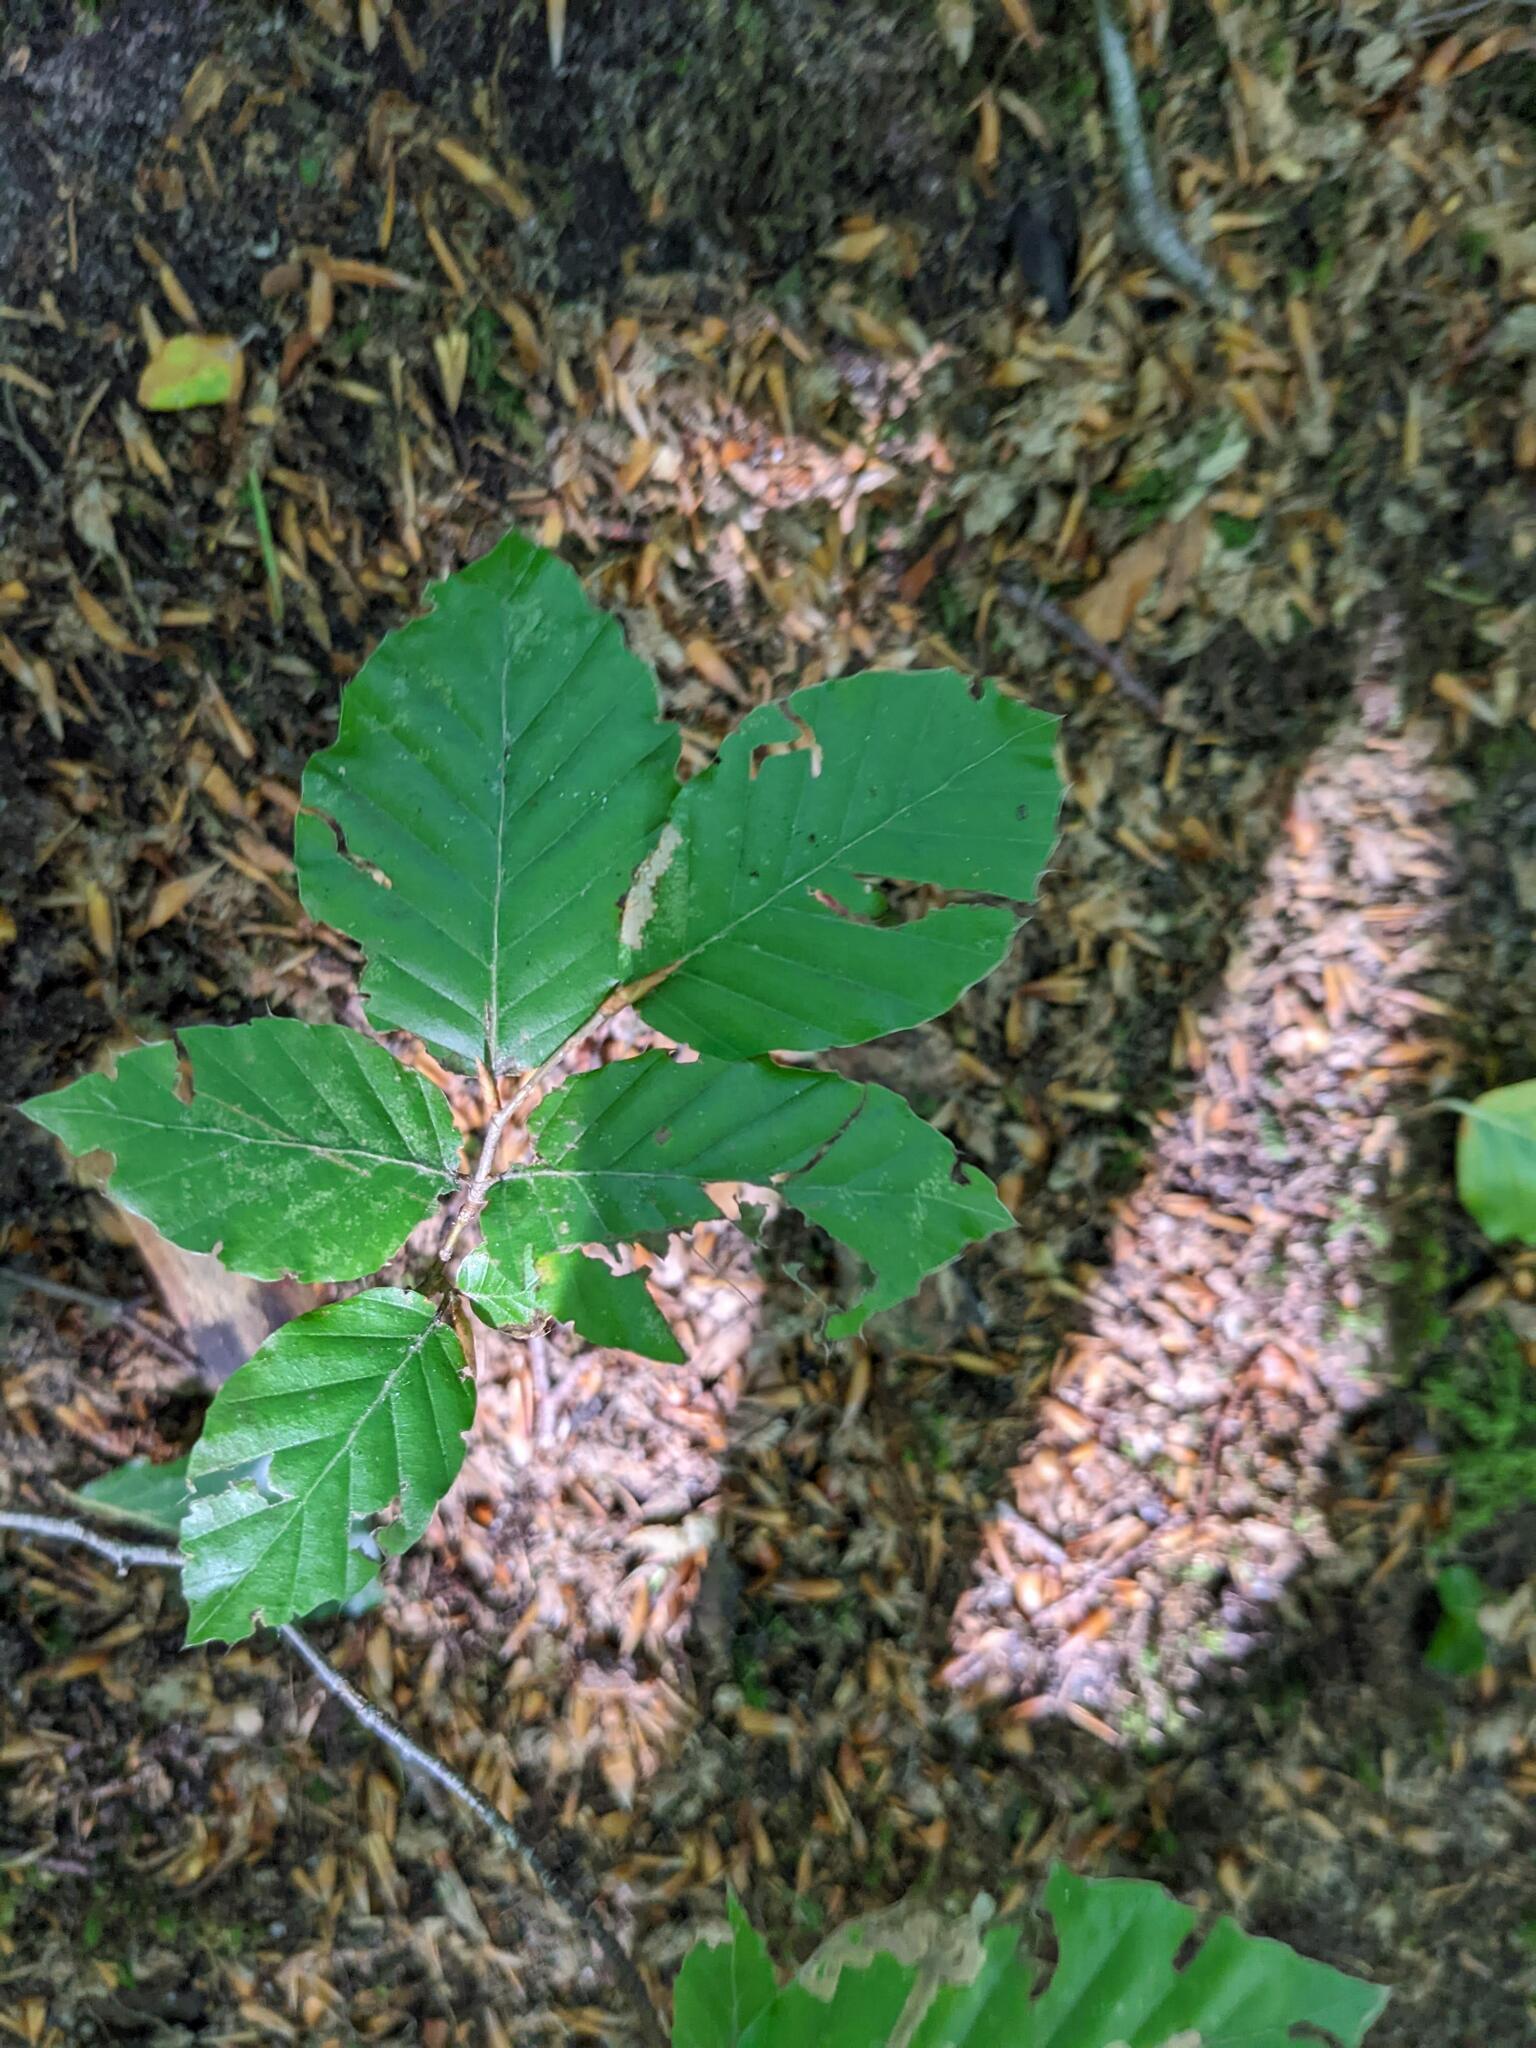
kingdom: Plantae
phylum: Tracheophyta
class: Magnoliopsida
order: Fagales
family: Fagaceae
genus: Fagus
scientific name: Fagus sylvatica
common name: Beech
